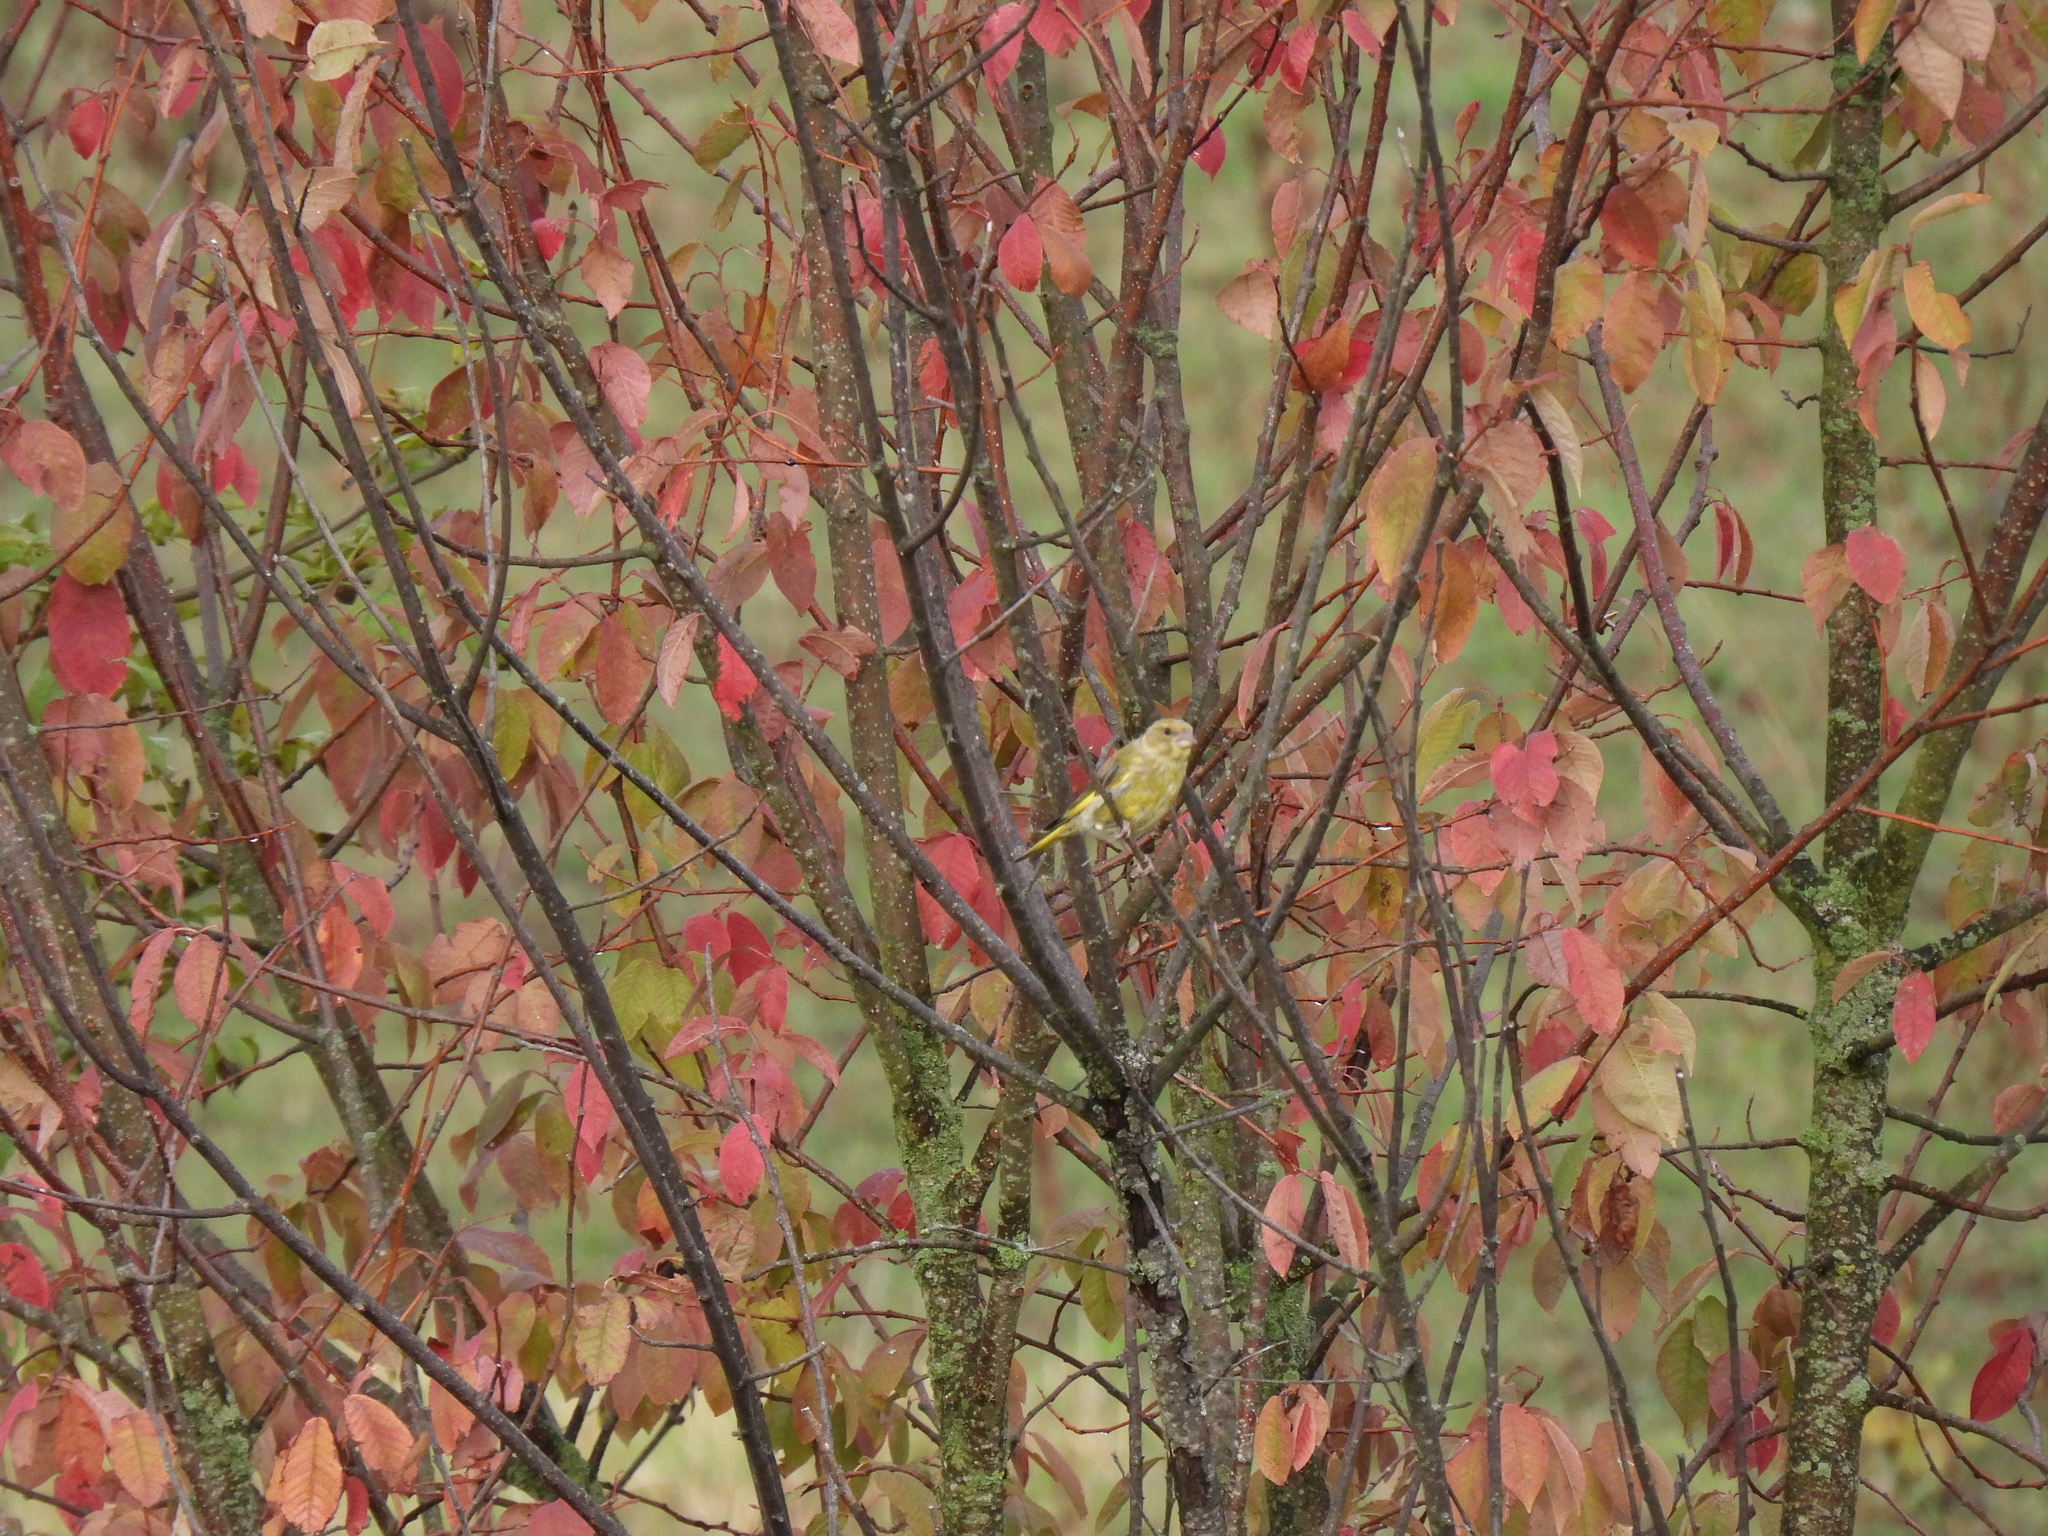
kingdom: Plantae
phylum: Tracheophyta
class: Liliopsida
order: Poales
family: Poaceae
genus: Chloris
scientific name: Chloris chloris
